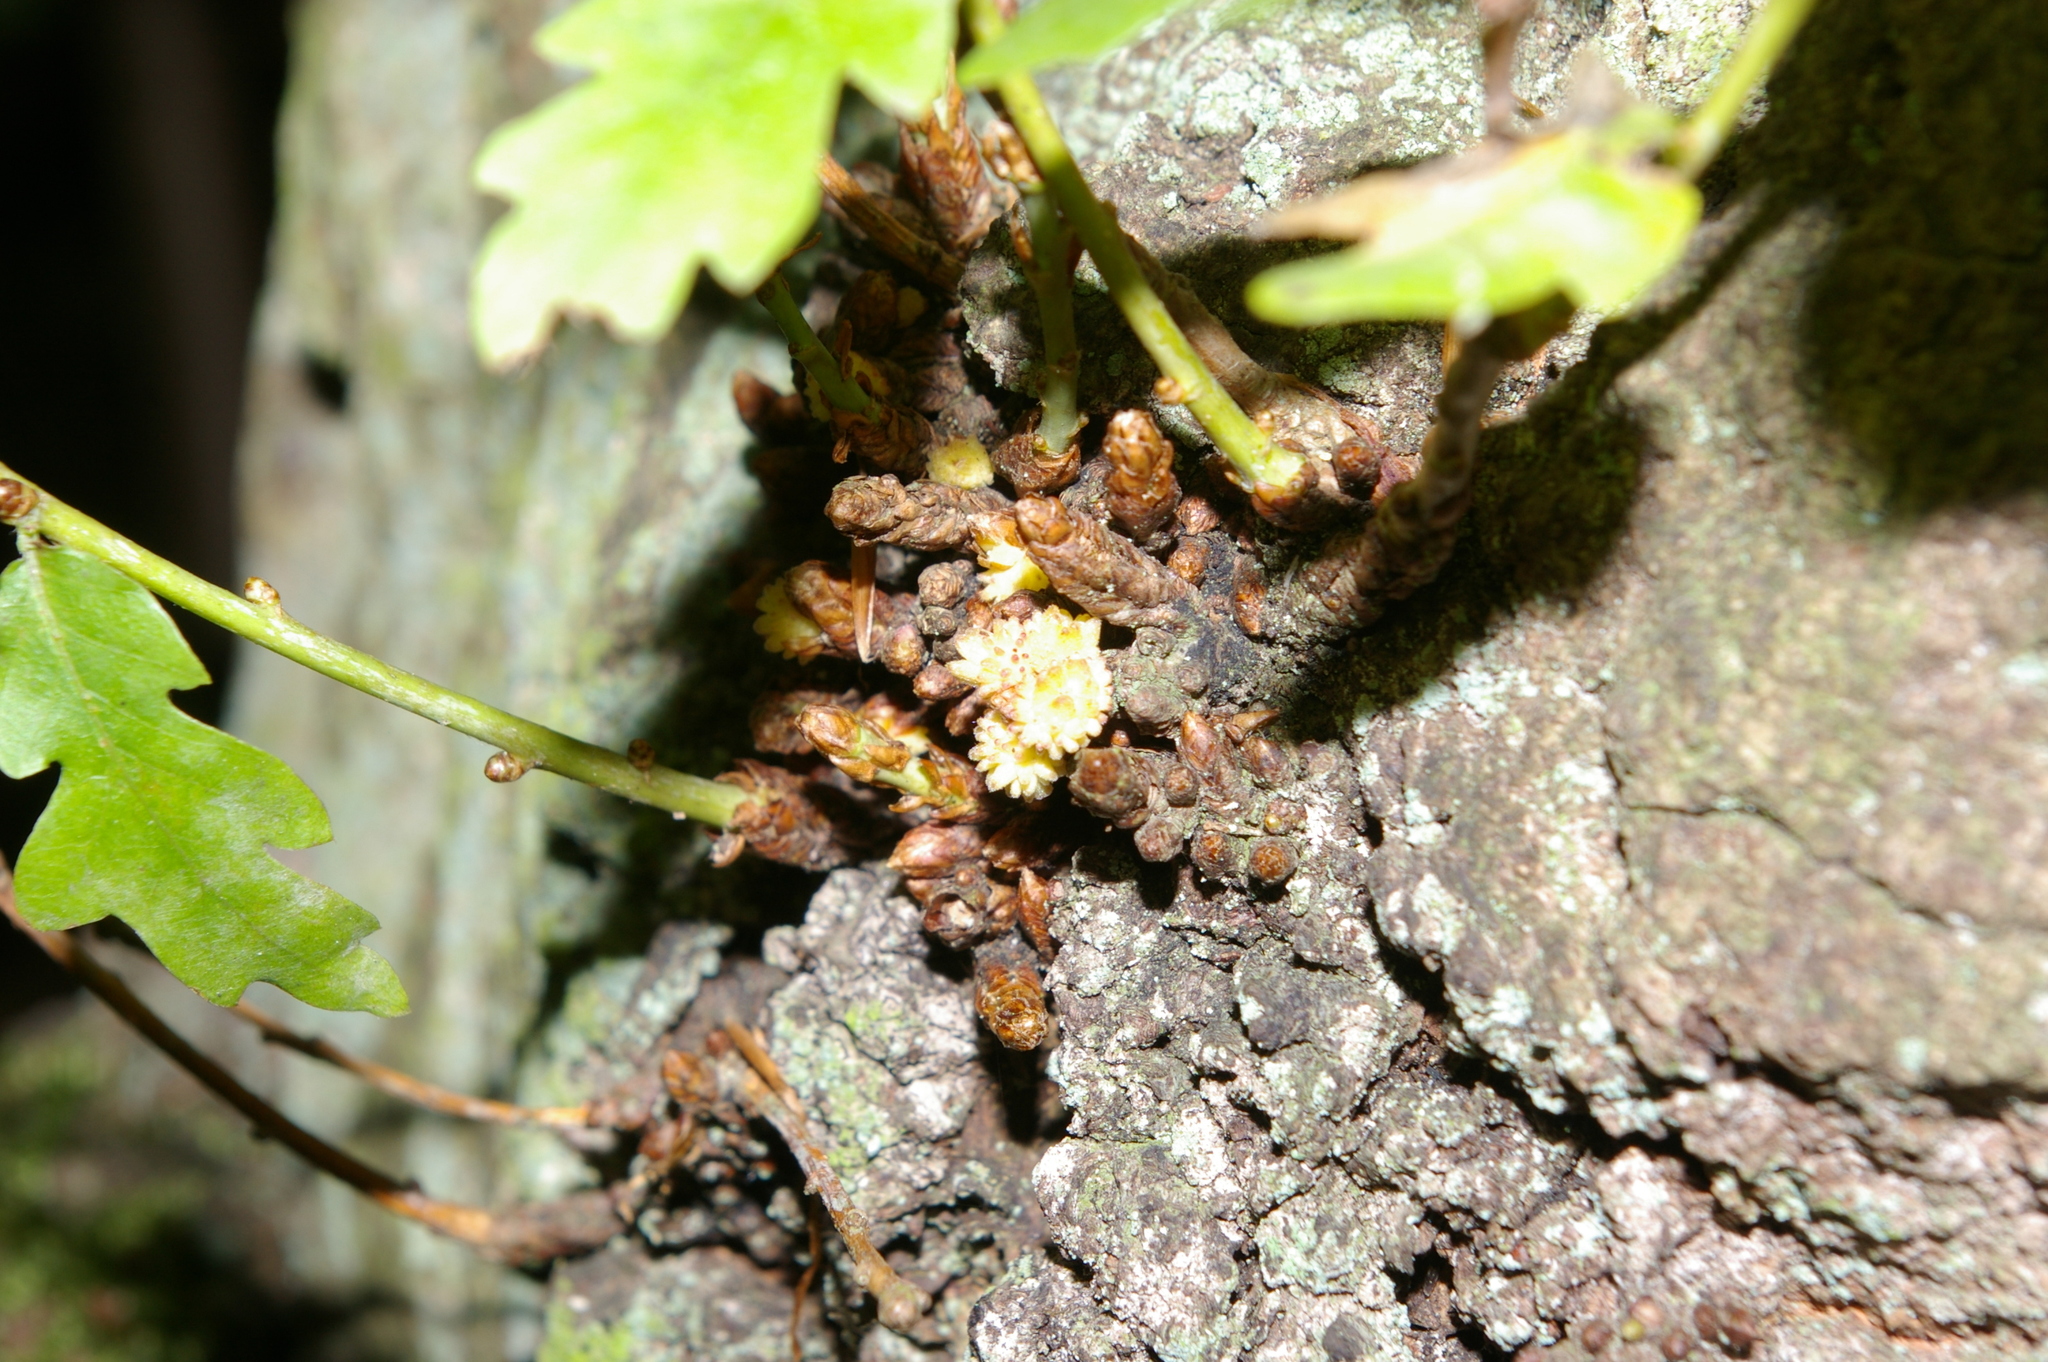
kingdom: Animalia
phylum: Arthropoda
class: Insecta
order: Hymenoptera
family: Cynipidae
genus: Andricus
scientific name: Andricus gemmeus
